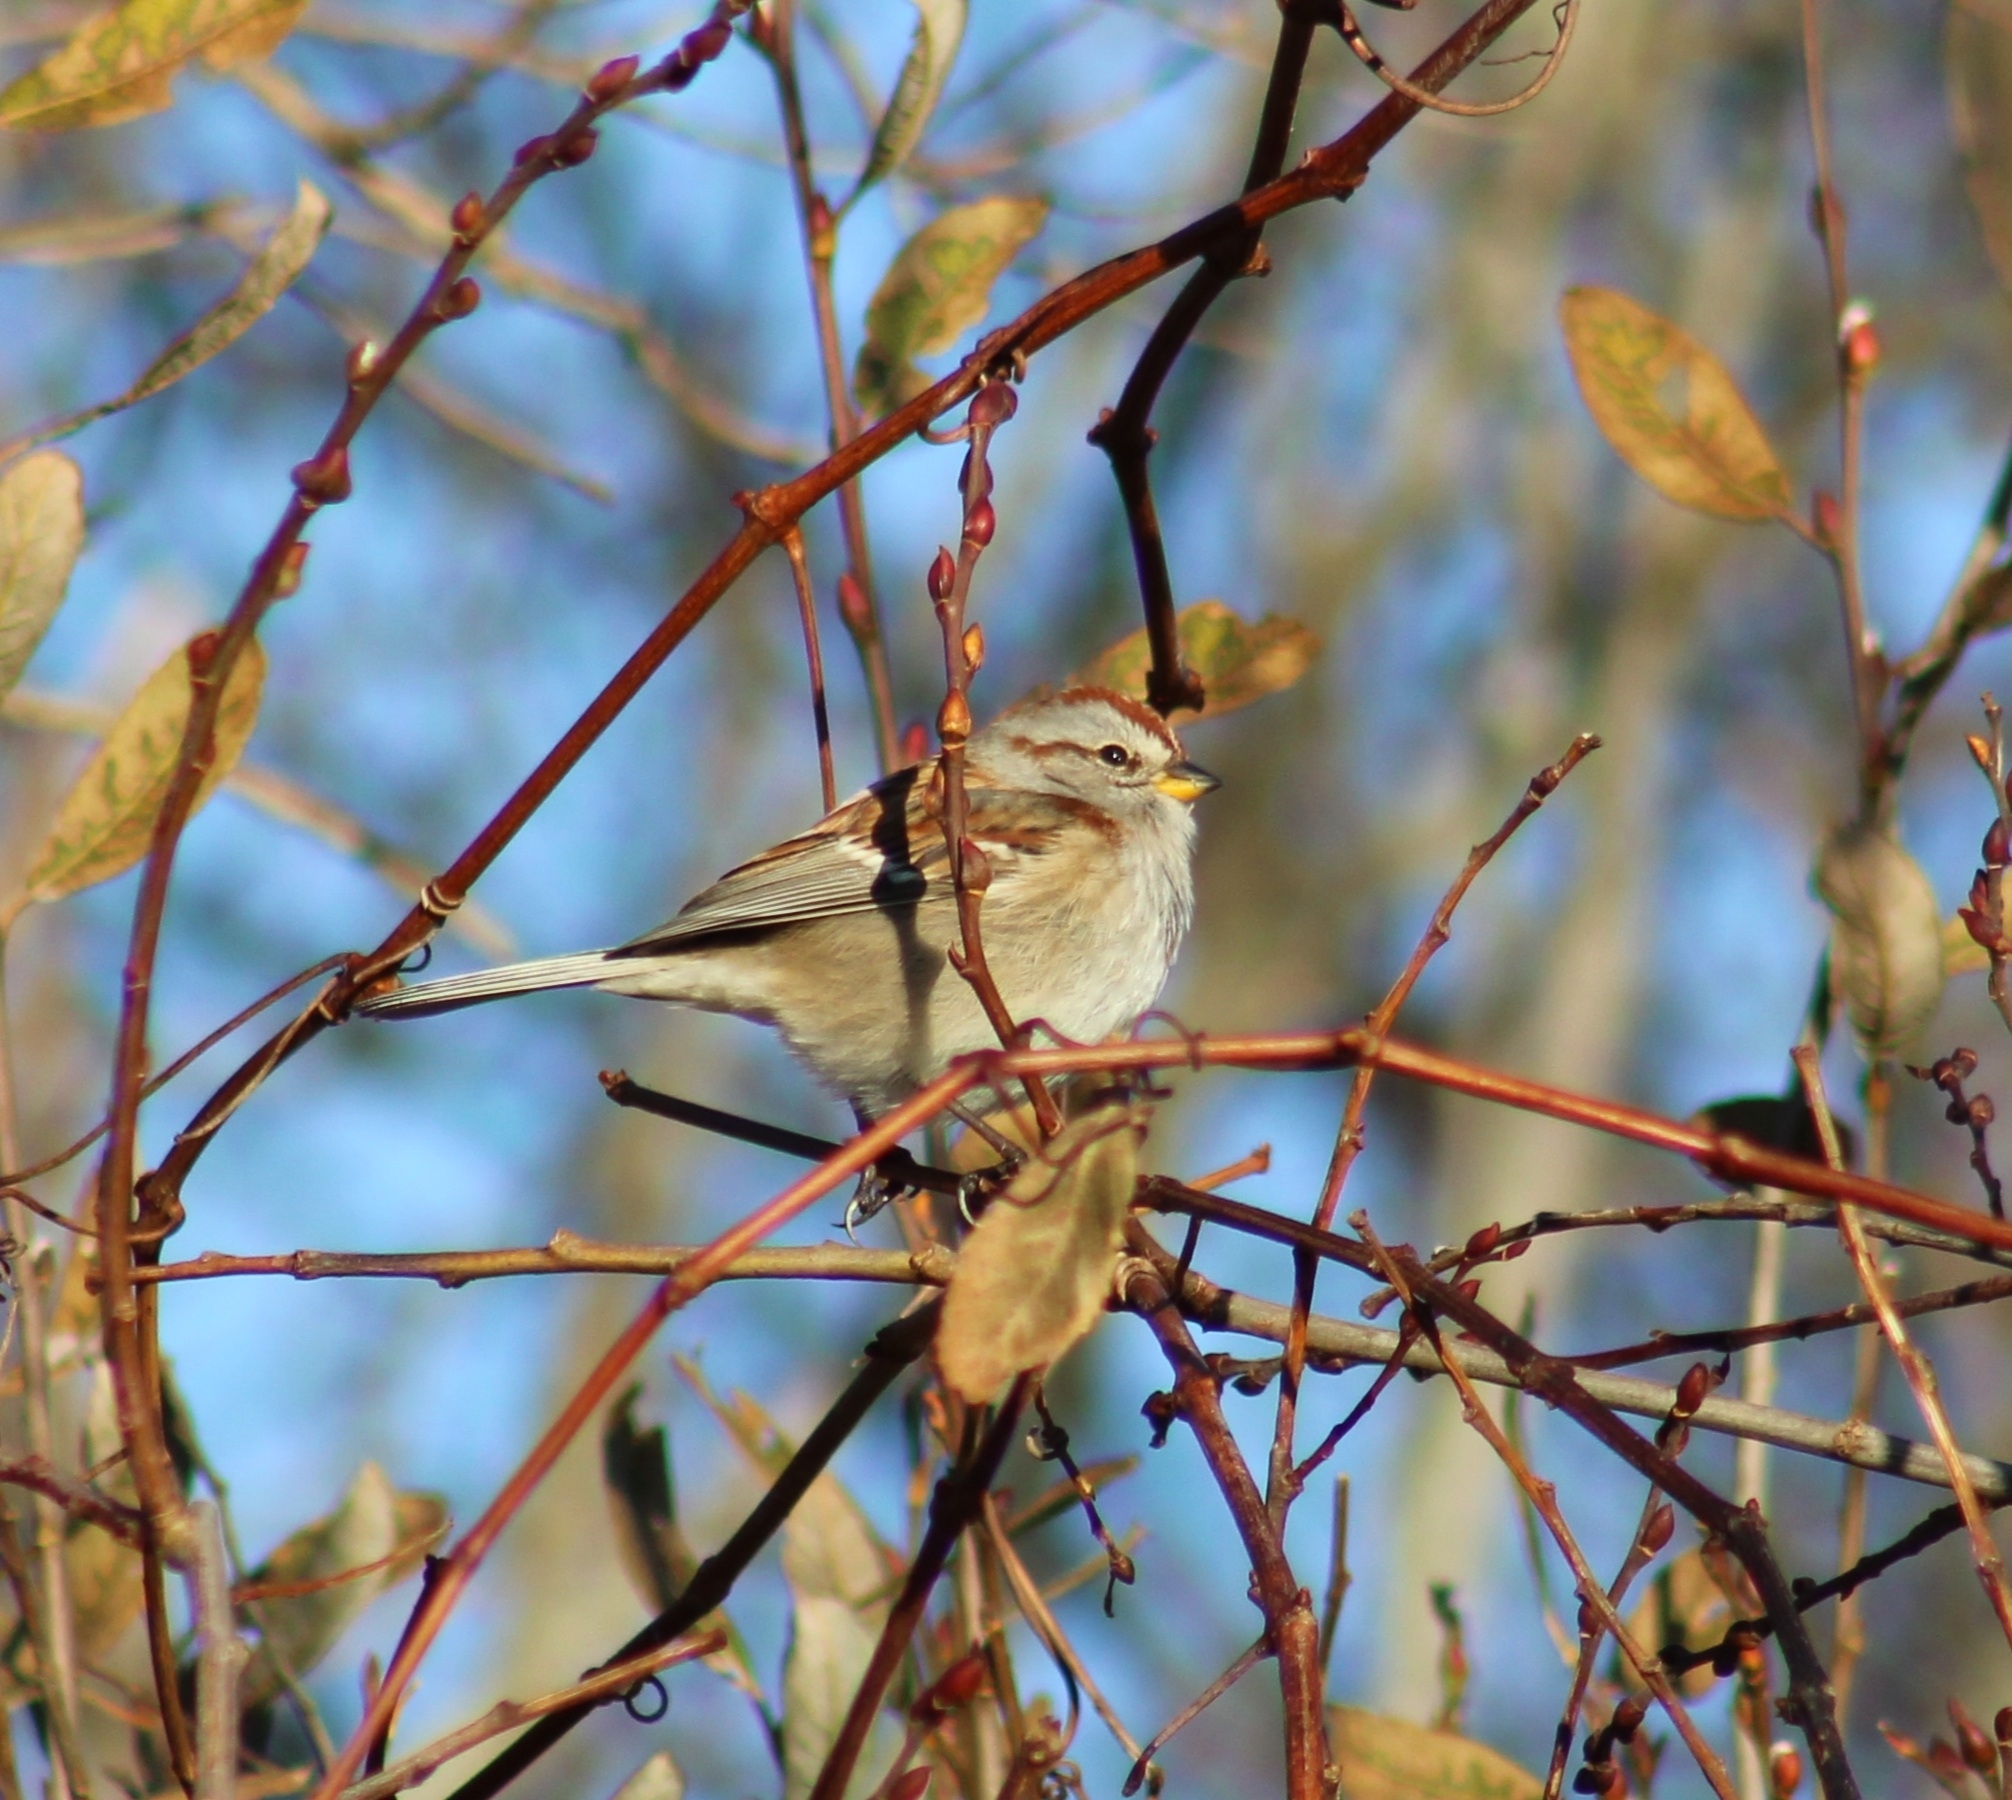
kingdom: Animalia
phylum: Chordata
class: Aves
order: Passeriformes
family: Passerellidae
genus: Spizelloides
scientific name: Spizelloides arborea
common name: American tree sparrow
